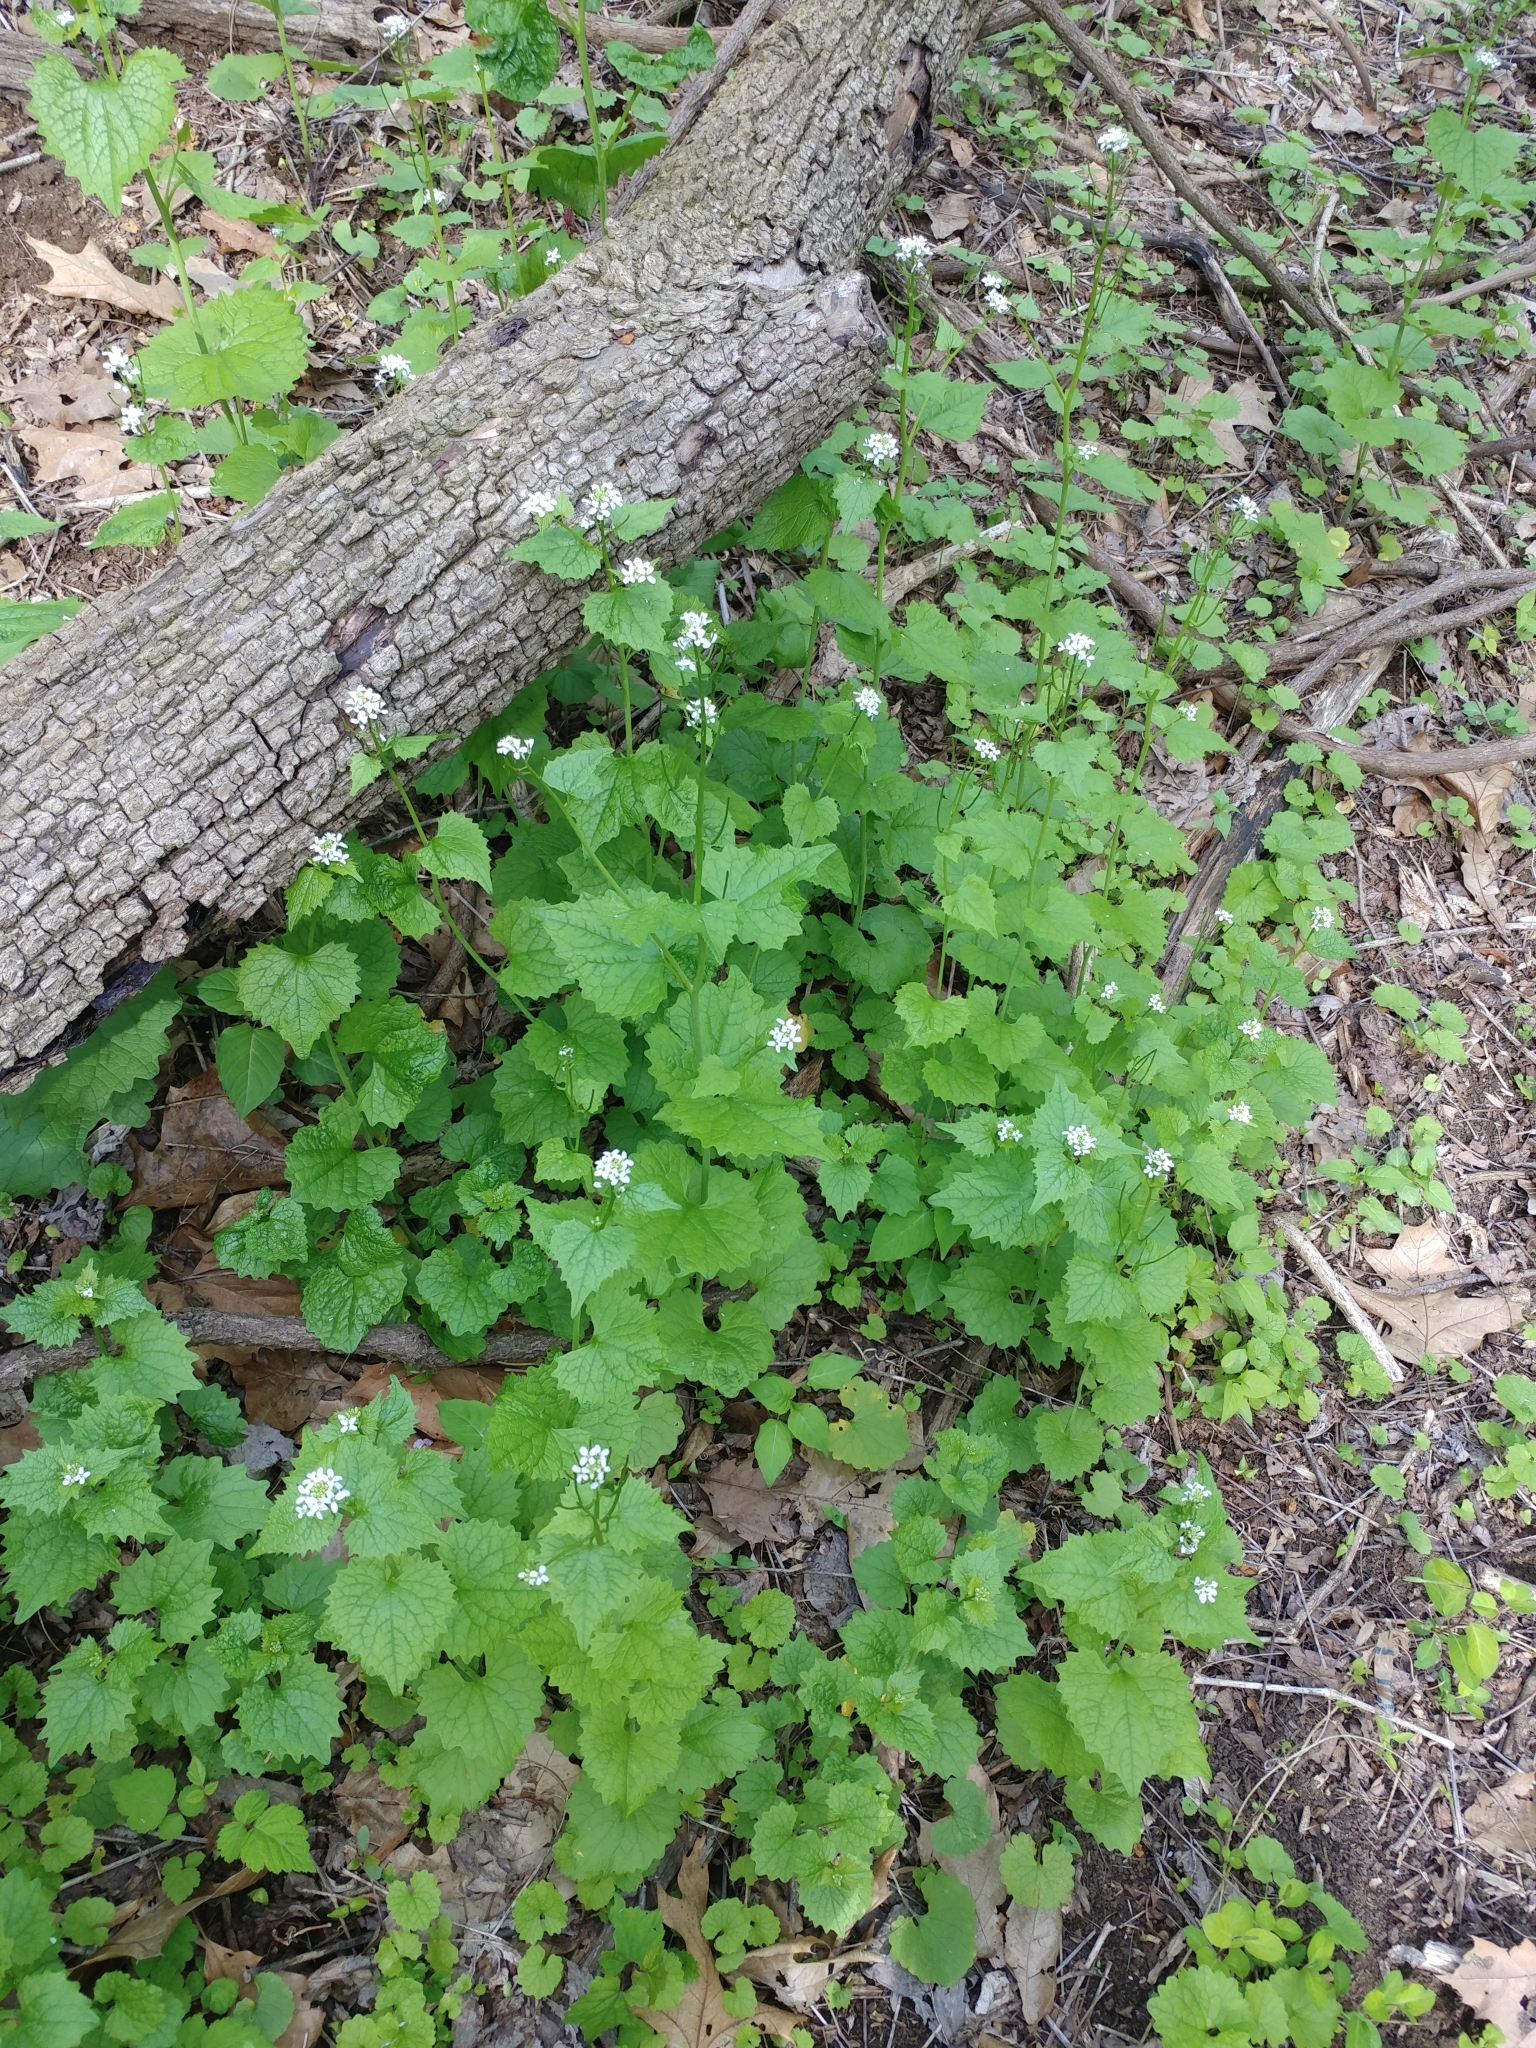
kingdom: Plantae
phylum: Tracheophyta
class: Magnoliopsida
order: Brassicales
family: Brassicaceae
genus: Alliaria
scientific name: Alliaria petiolata
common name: Garlic mustard
